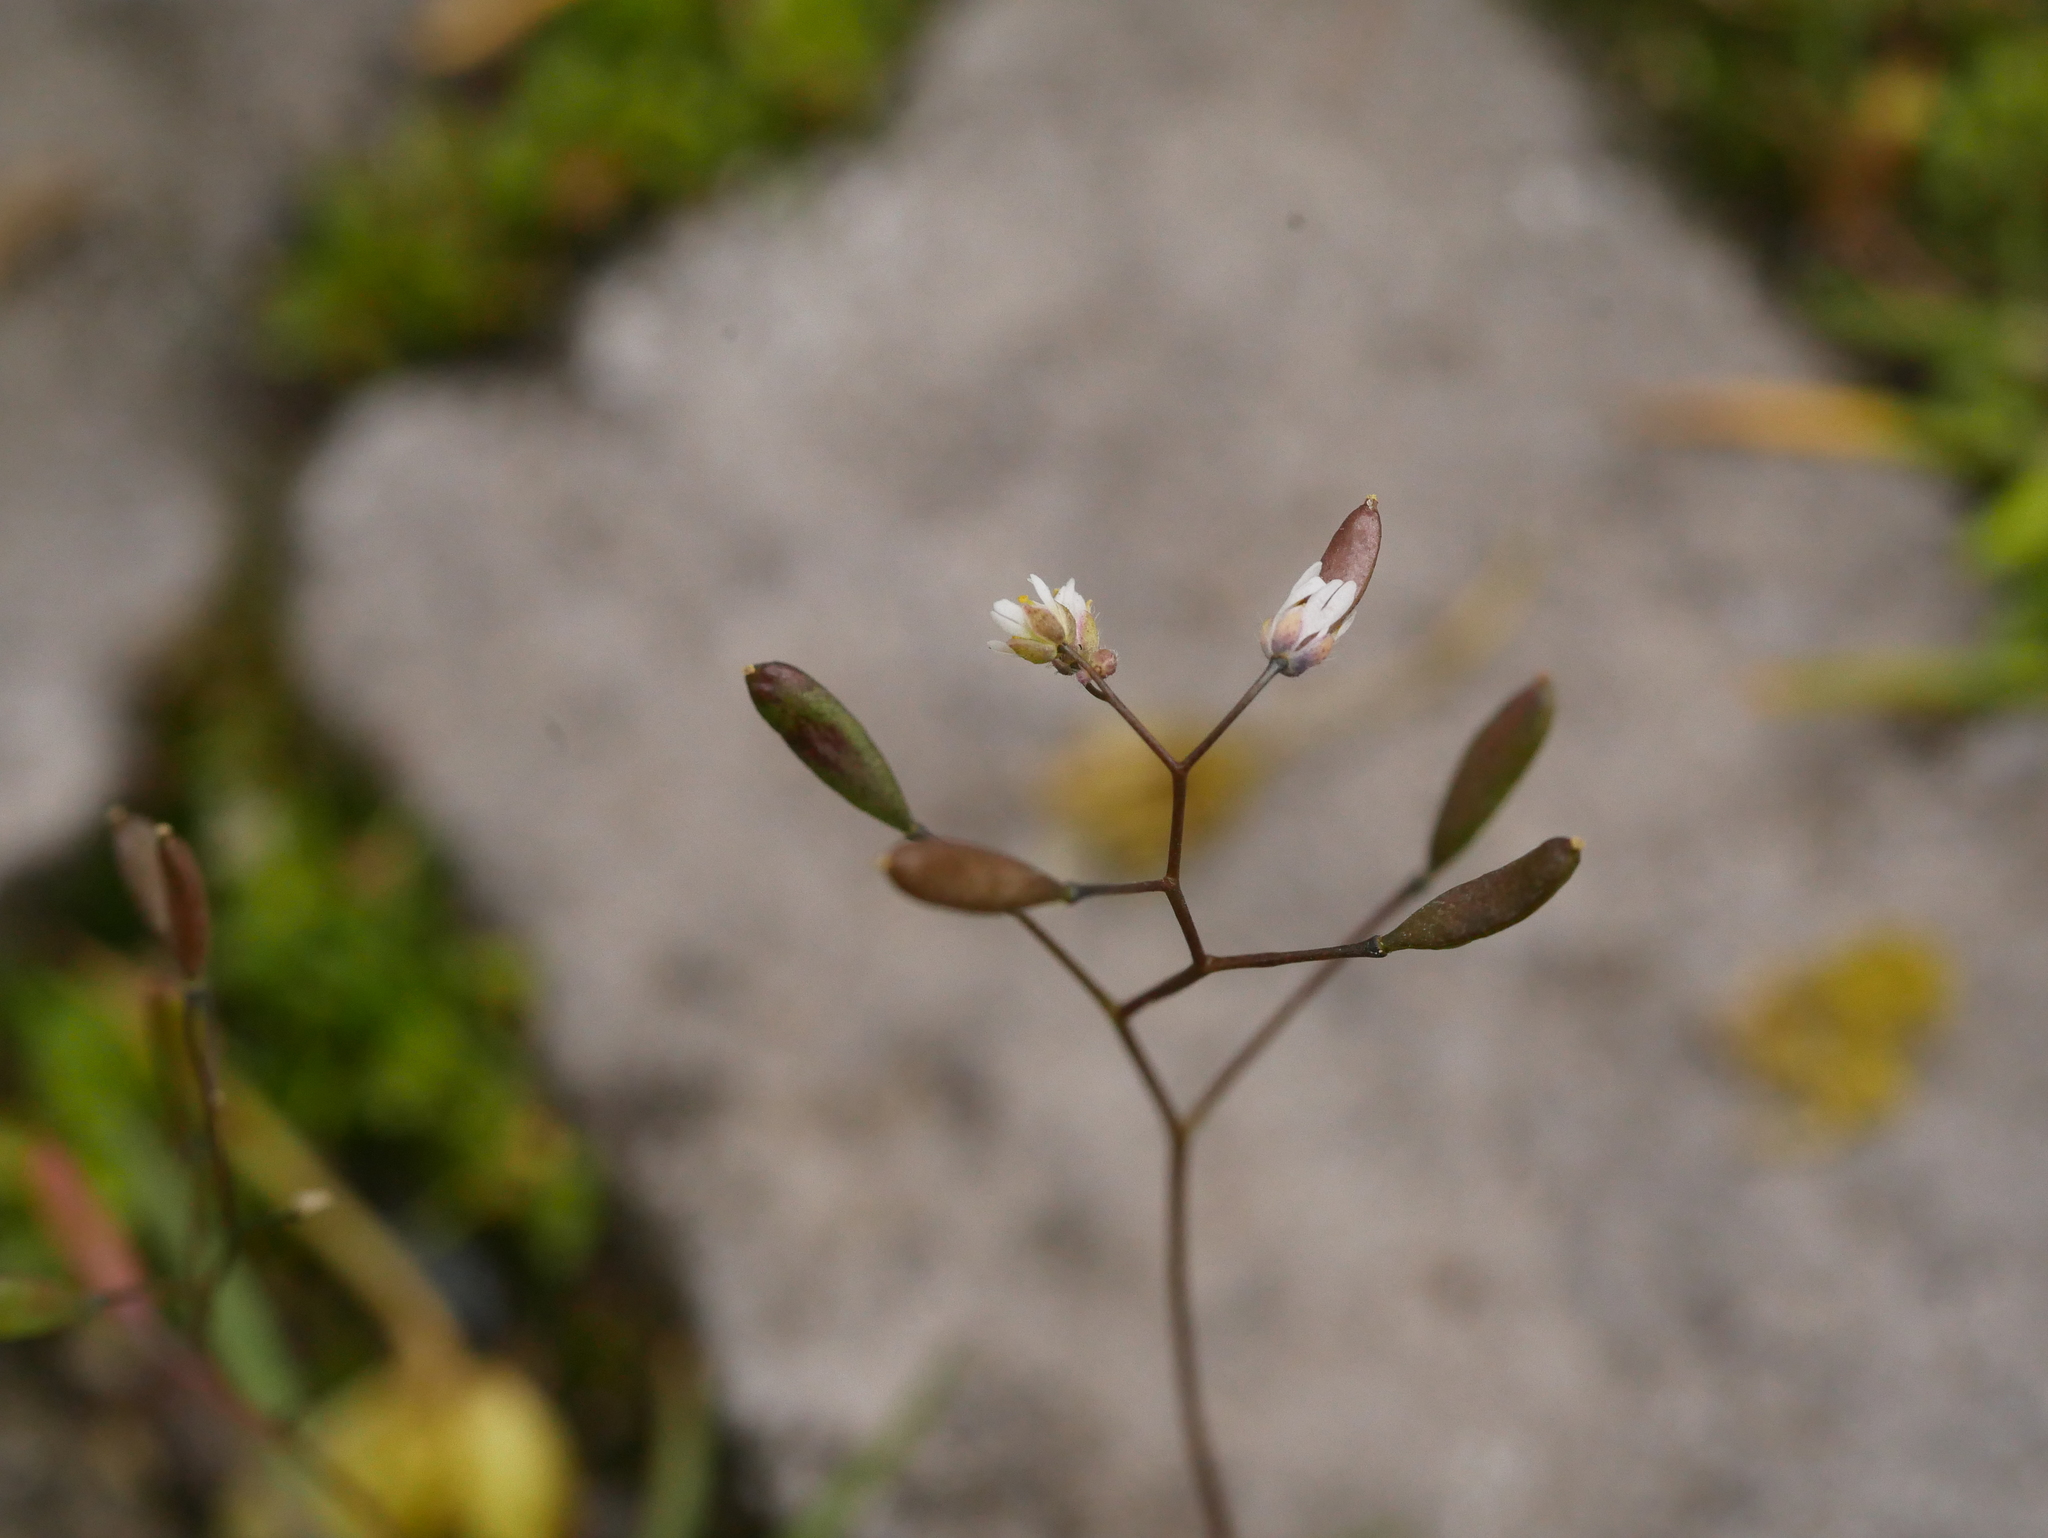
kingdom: Plantae
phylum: Tracheophyta
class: Magnoliopsida
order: Brassicales
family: Brassicaceae
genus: Draba
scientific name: Draba verna
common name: Spring draba
